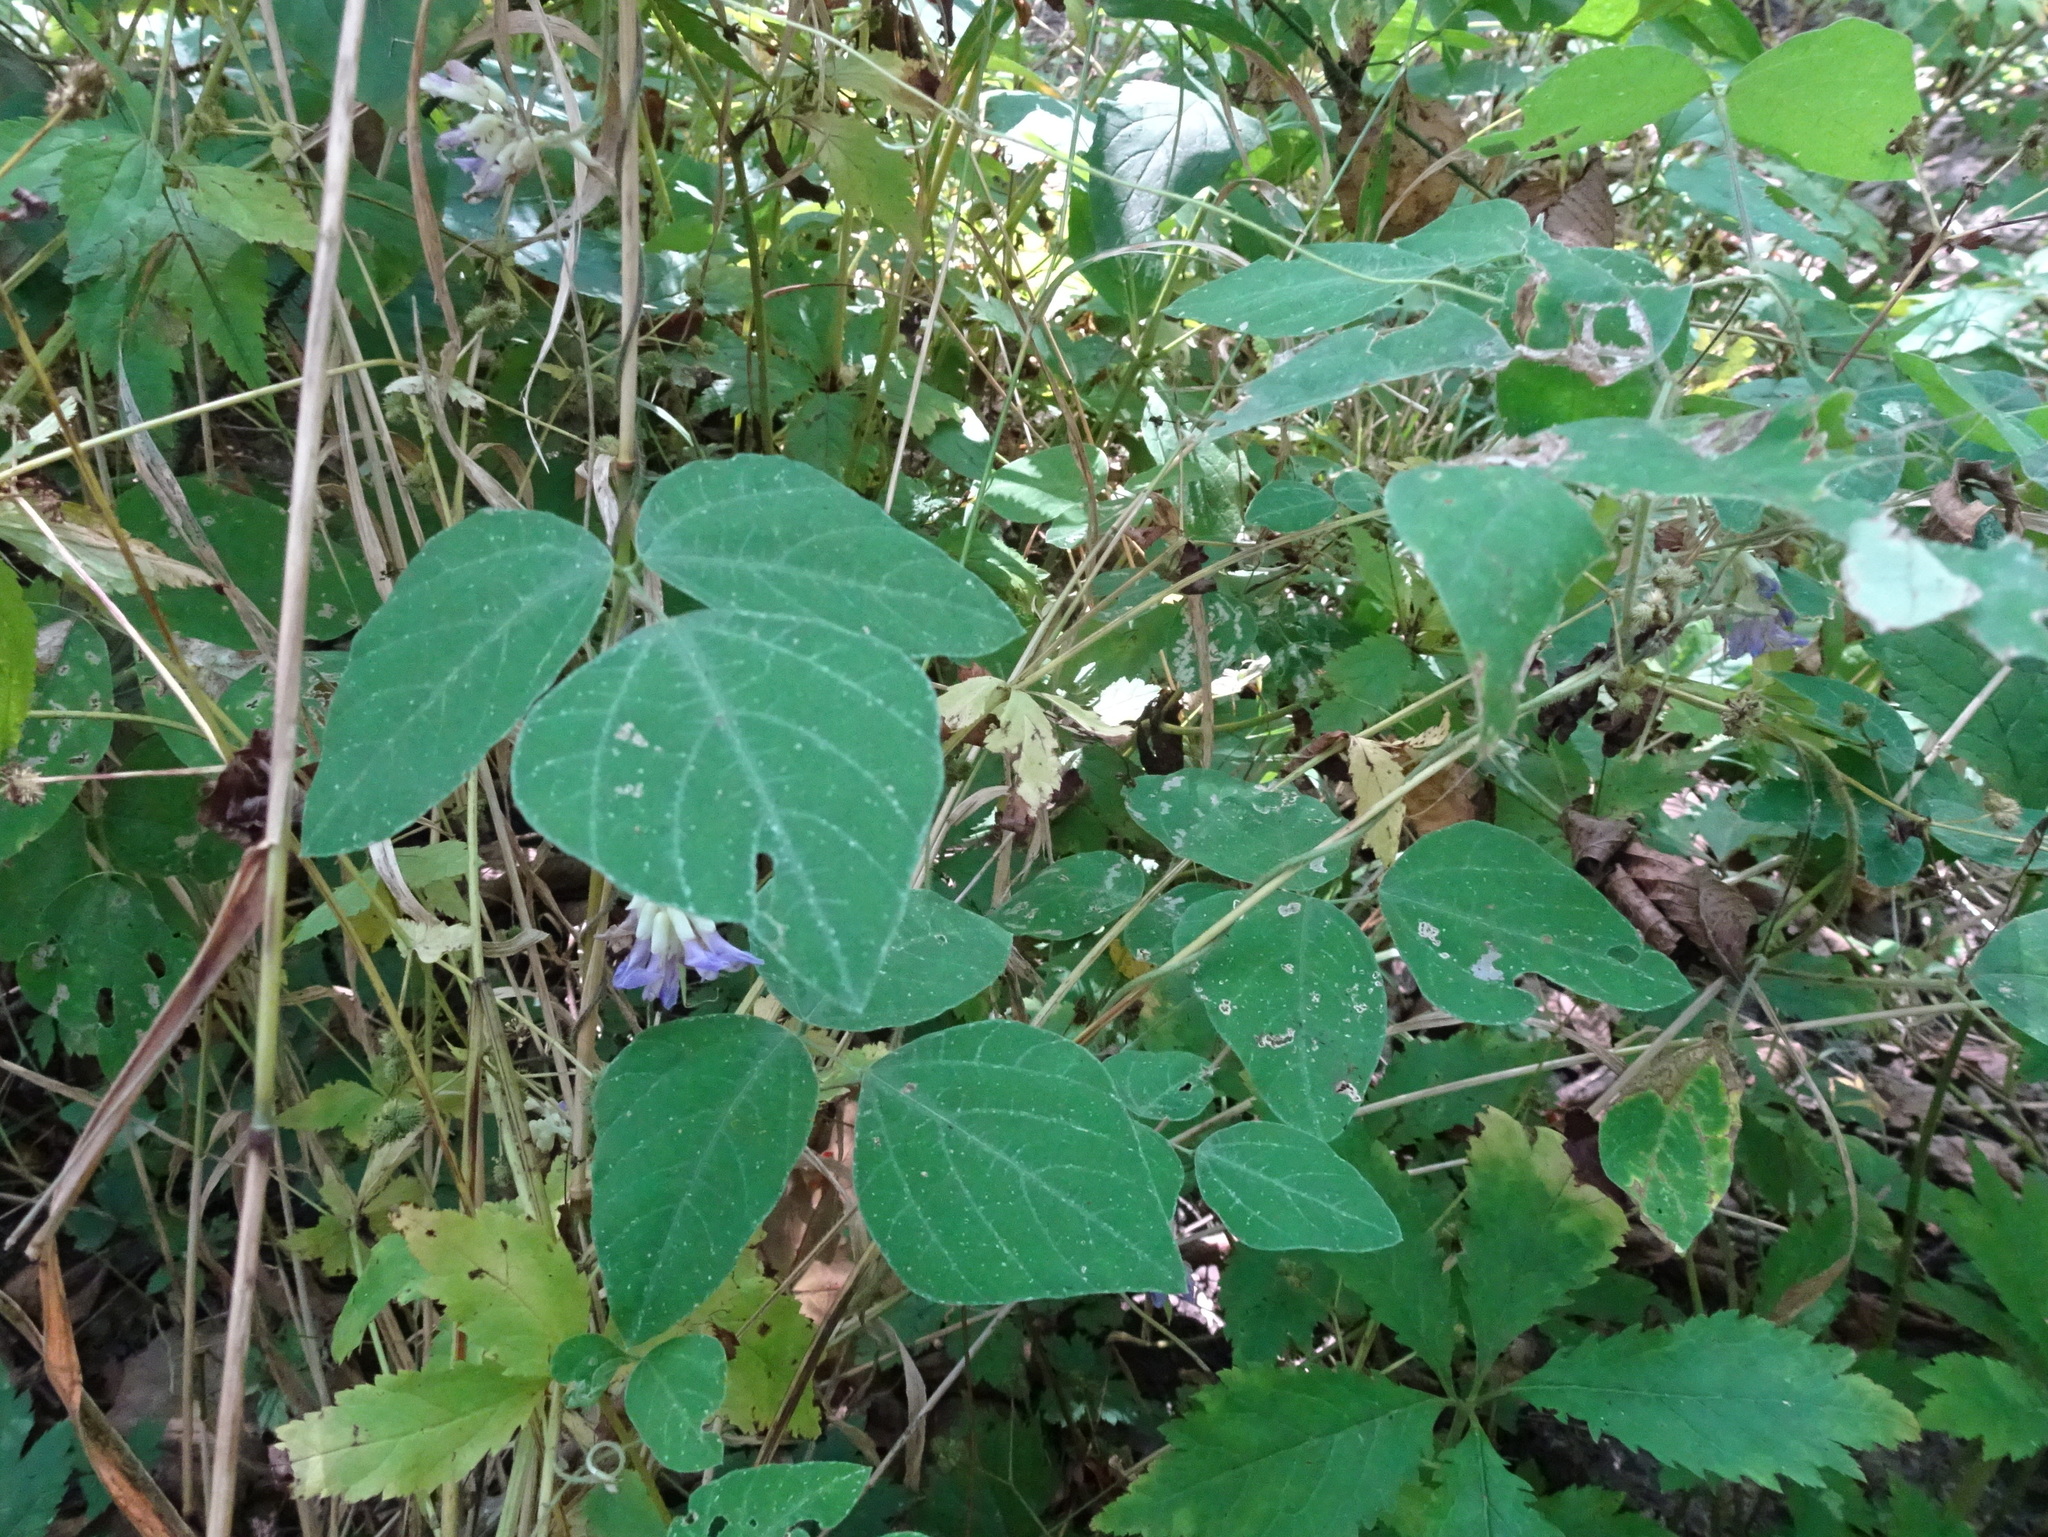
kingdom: Plantae
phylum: Tracheophyta
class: Magnoliopsida
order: Fabales
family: Fabaceae
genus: Amphicarpaea
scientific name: Amphicarpaea bracteata
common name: American hog peanut
